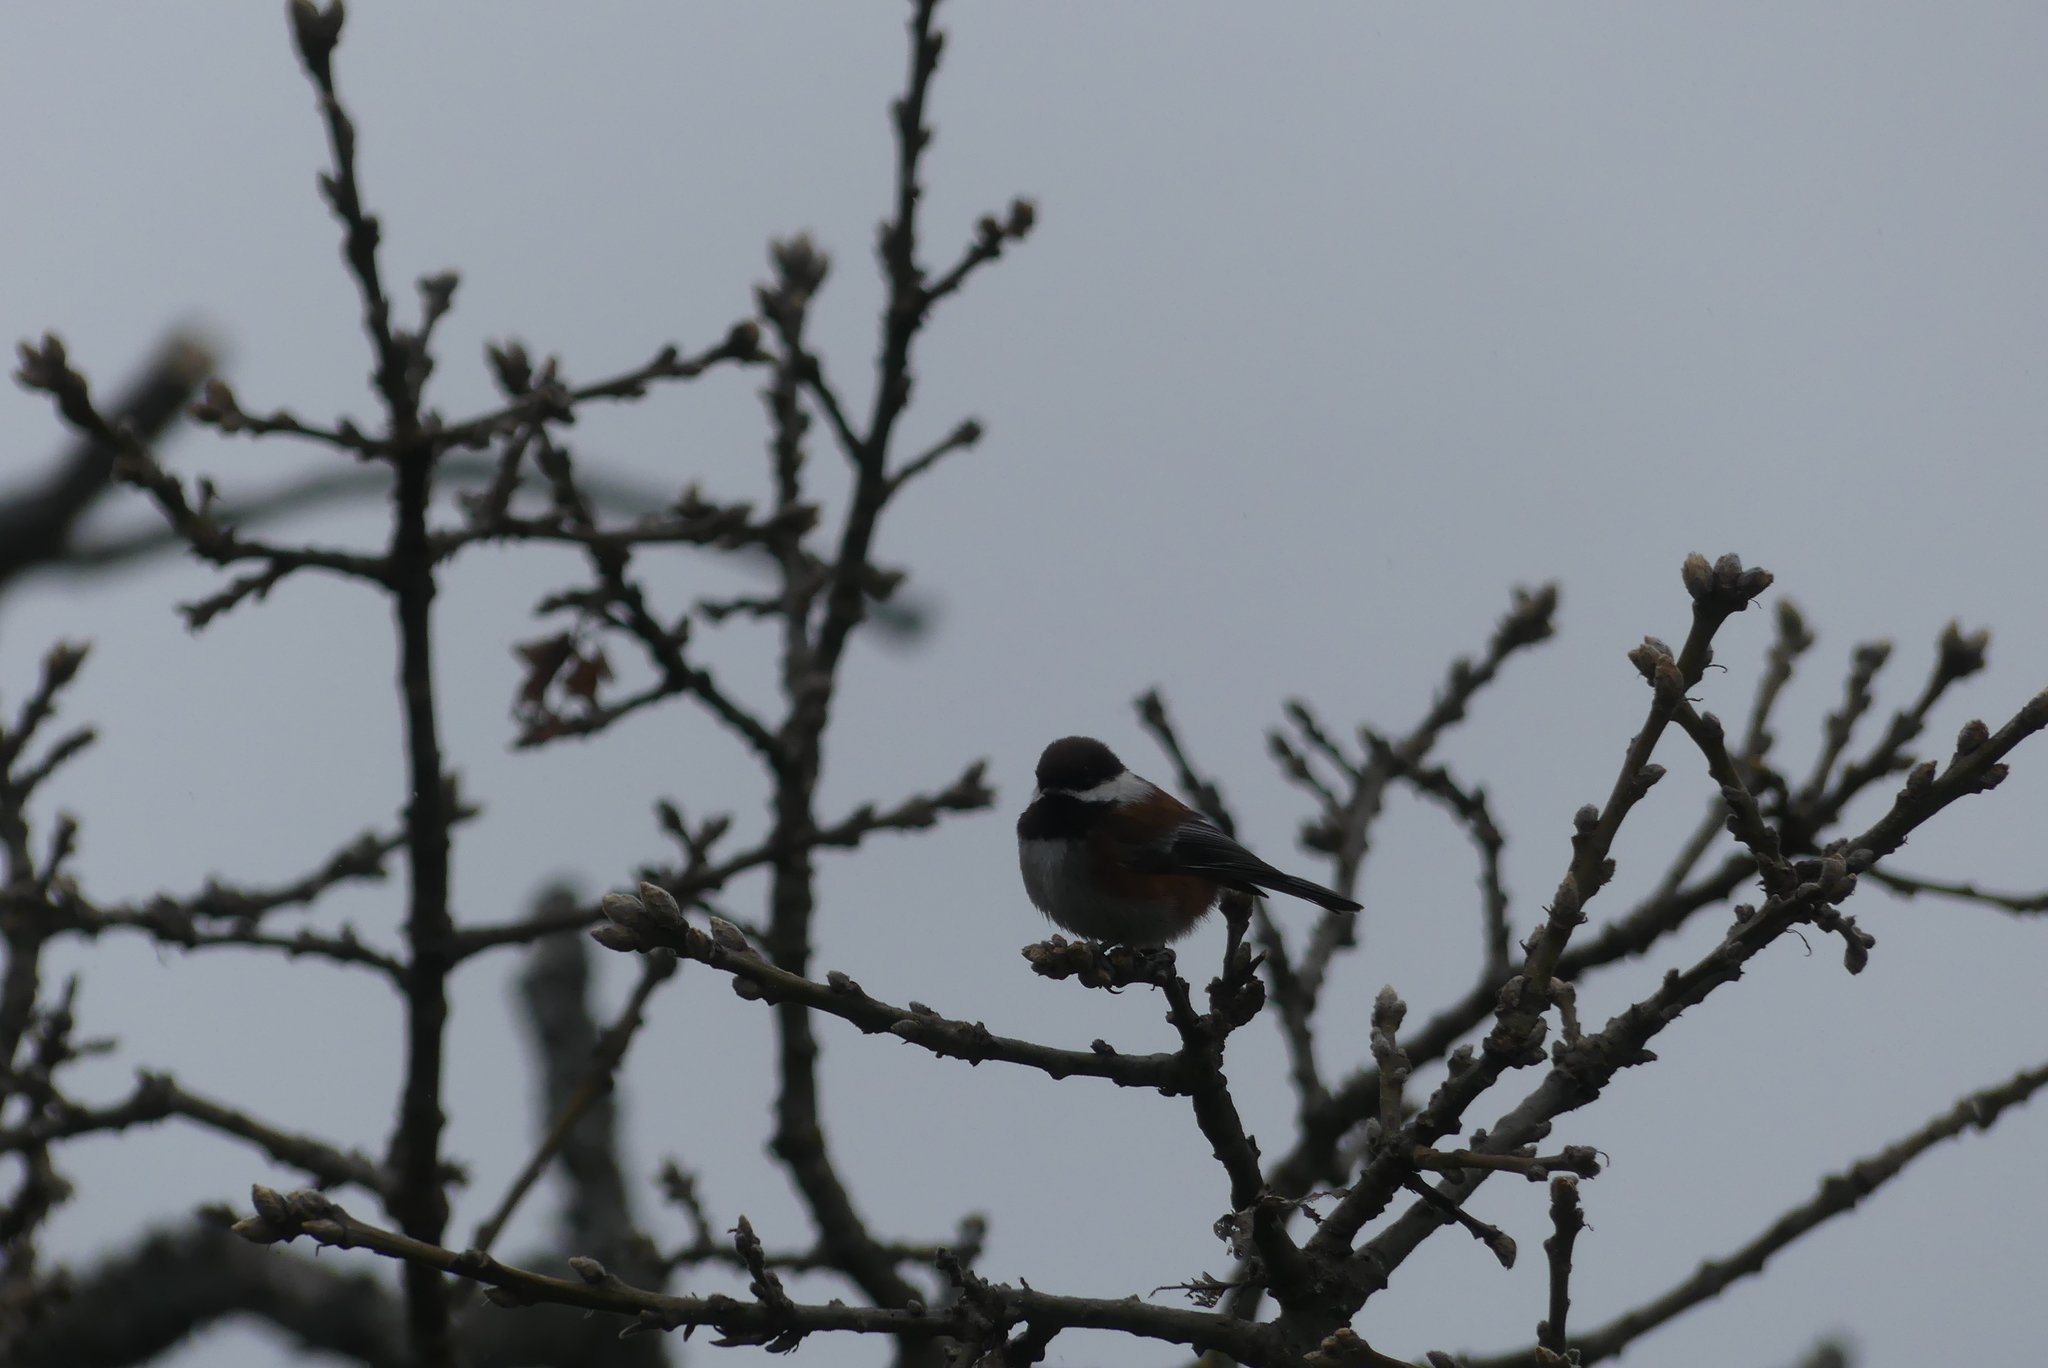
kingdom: Animalia
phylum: Chordata
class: Aves
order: Passeriformes
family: Paridae
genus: Poecile
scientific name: Poecile rufescens
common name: Chestnut-backed chickadee
